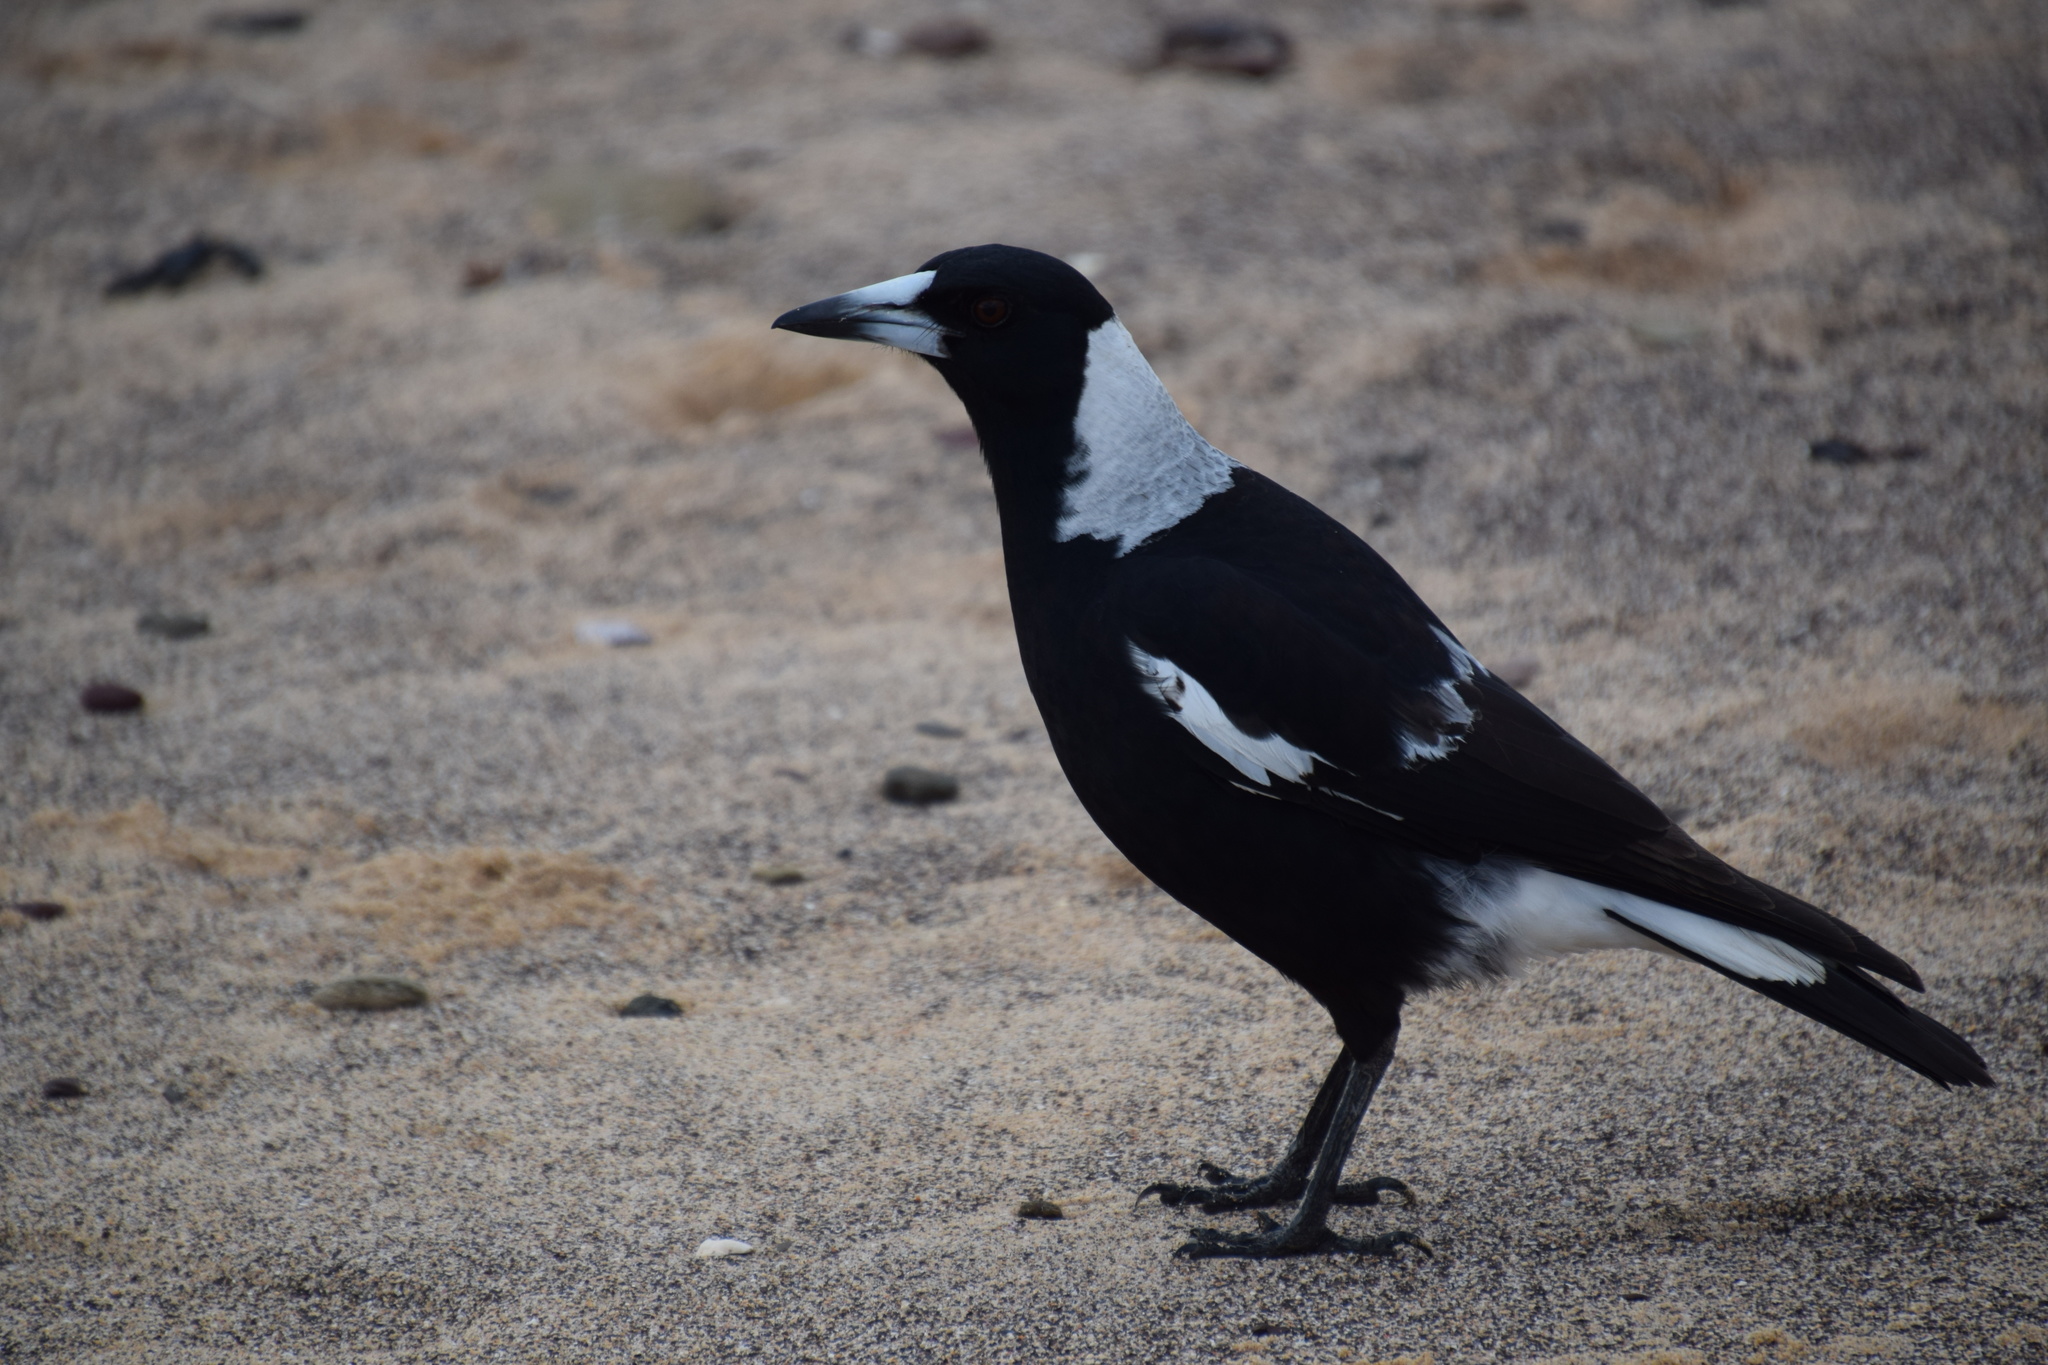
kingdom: Animalia
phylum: Chordata
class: Aves
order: Passeriformes
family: Cracticidae
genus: Gymnorhina
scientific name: Gymnorhina tibicen
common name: Australian magpie
